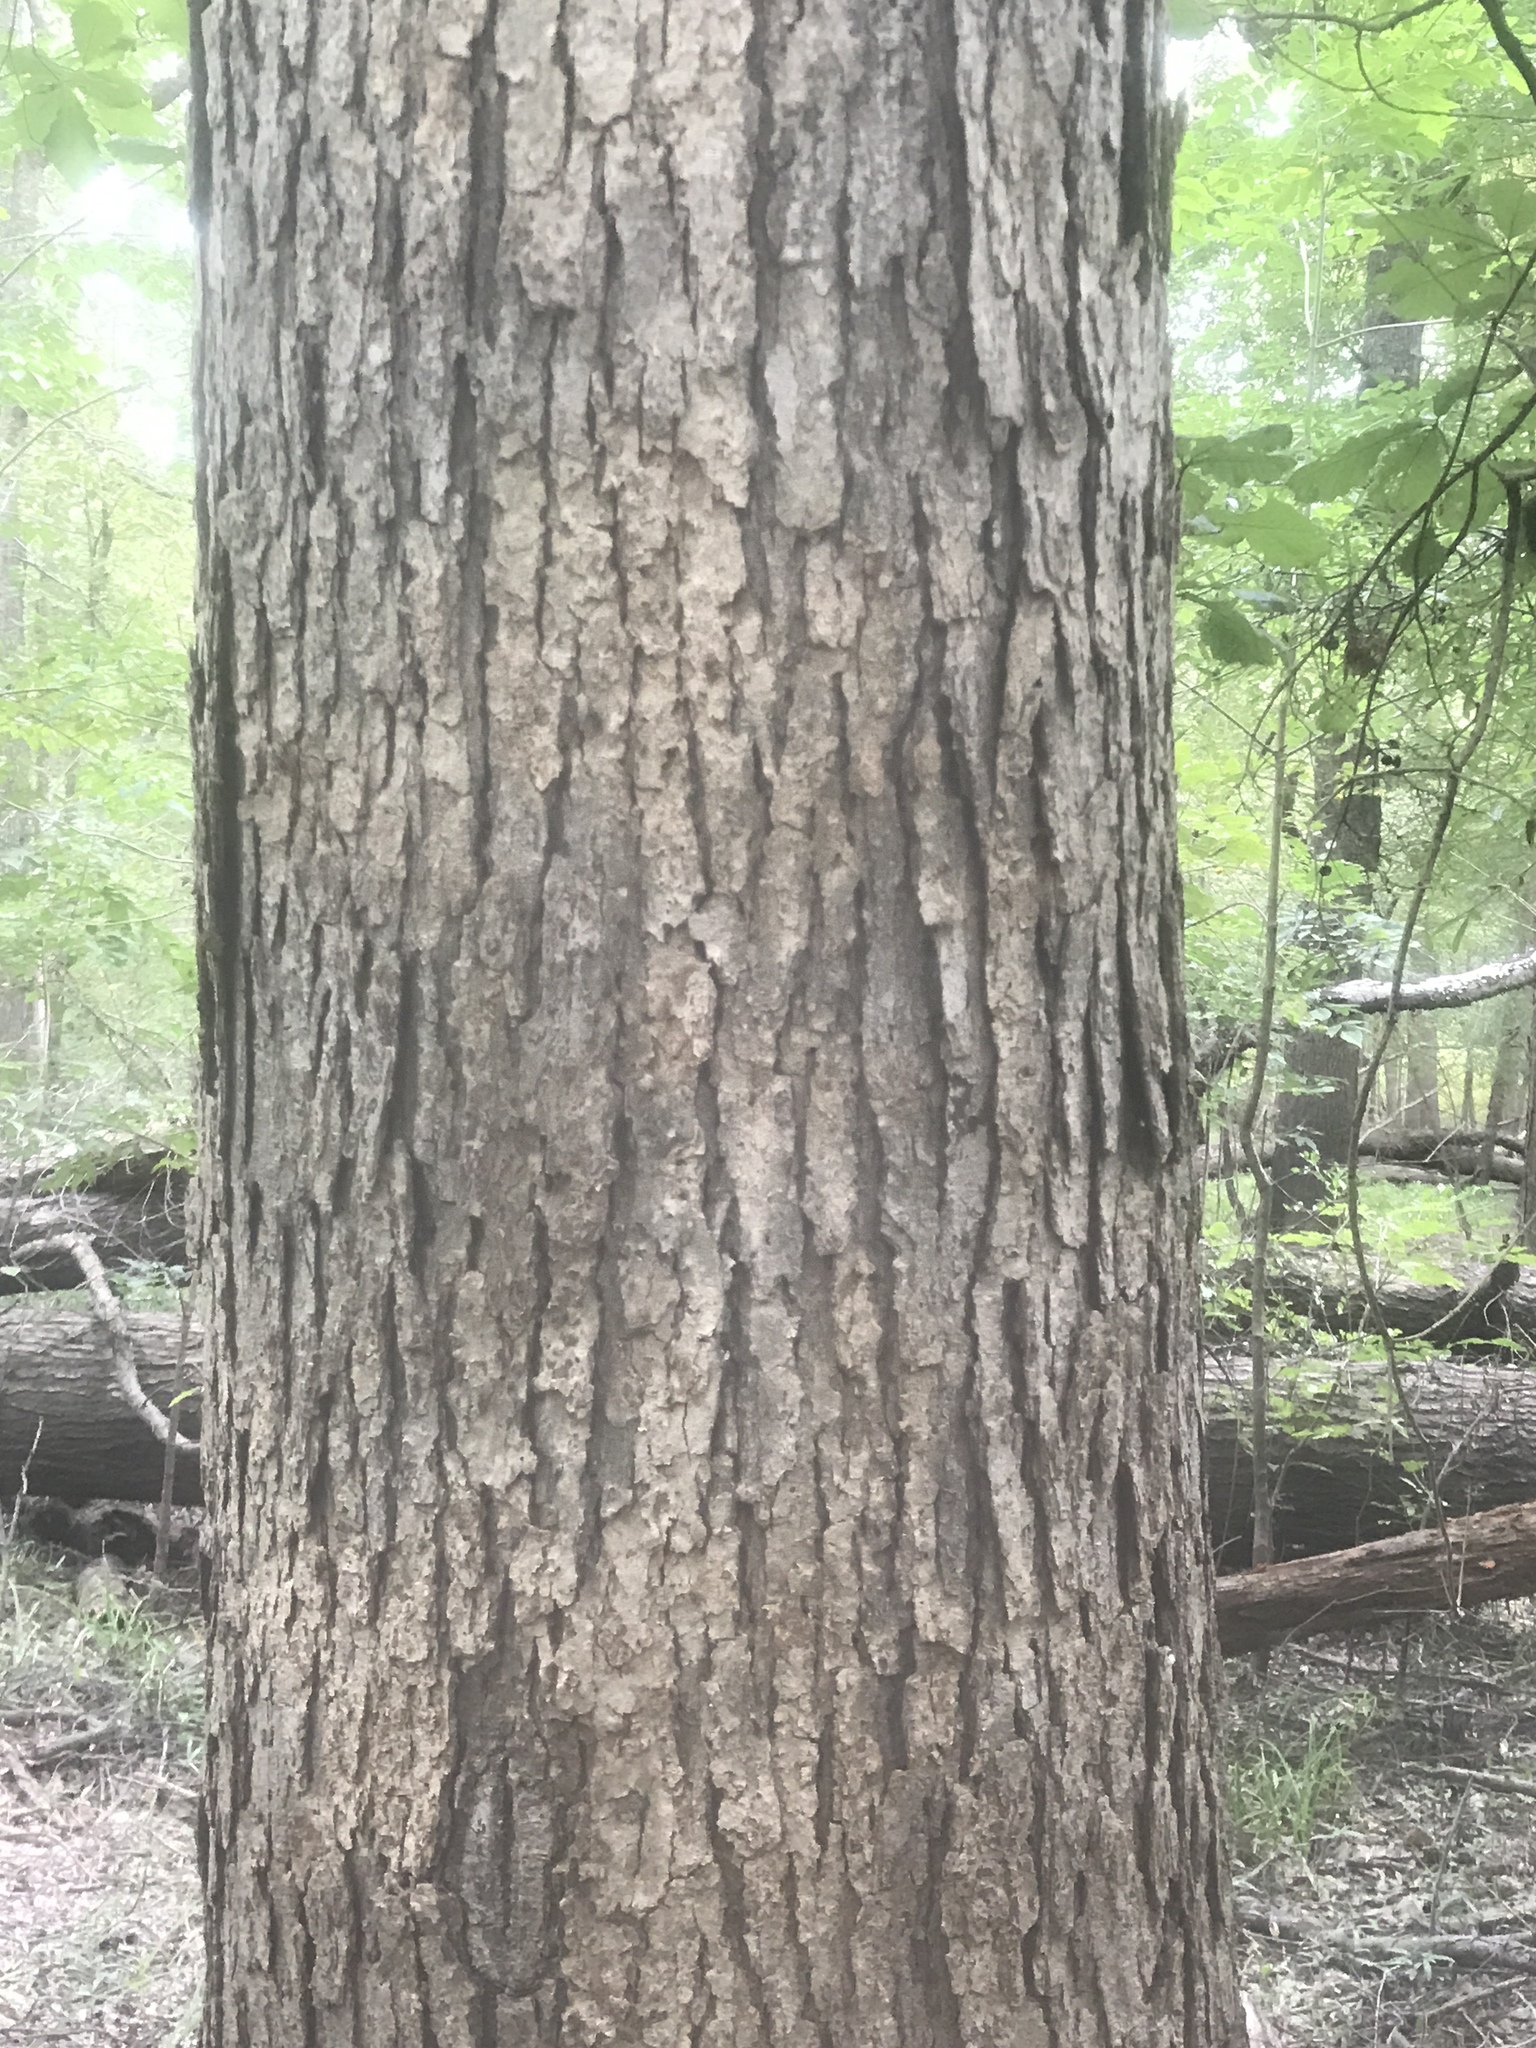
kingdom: Plantae
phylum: Tracheophyta
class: Magnoliopsida
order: Fagales
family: Fagaceae
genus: Quercus
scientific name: Quercus michauxii
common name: Swamp chestnut oak
